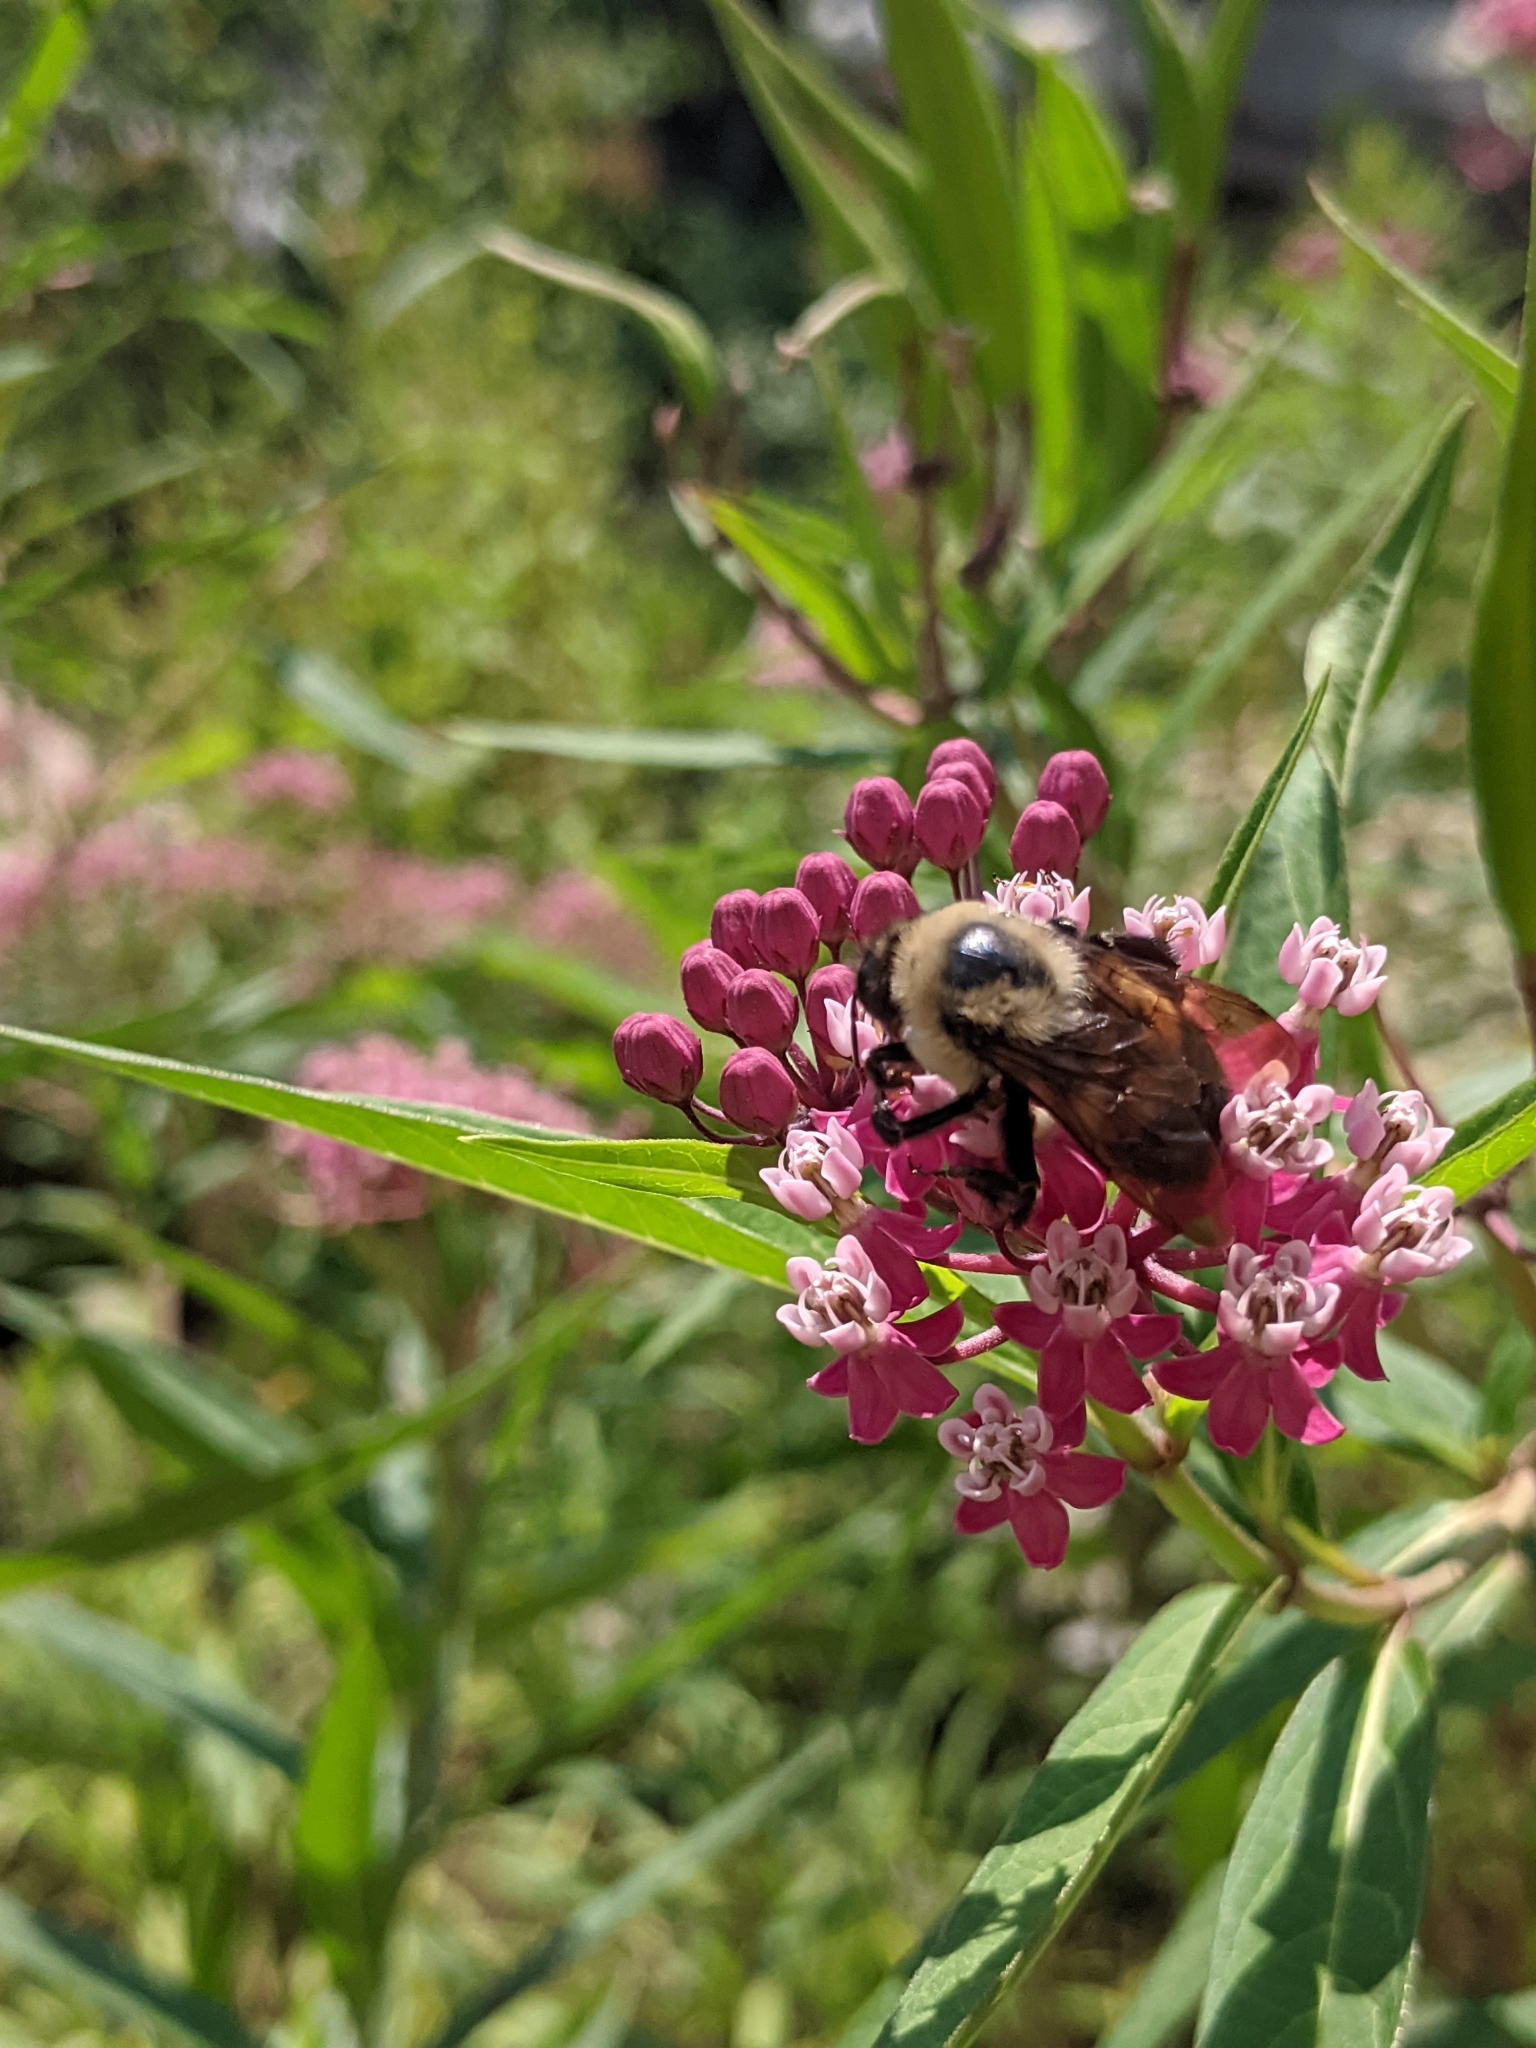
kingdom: Animalia
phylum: Arthropoda
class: Insecta
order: Hymenoptera
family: Apidae
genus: Bombus
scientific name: Bombus griseocollis
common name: Brown-belted bumble bee
